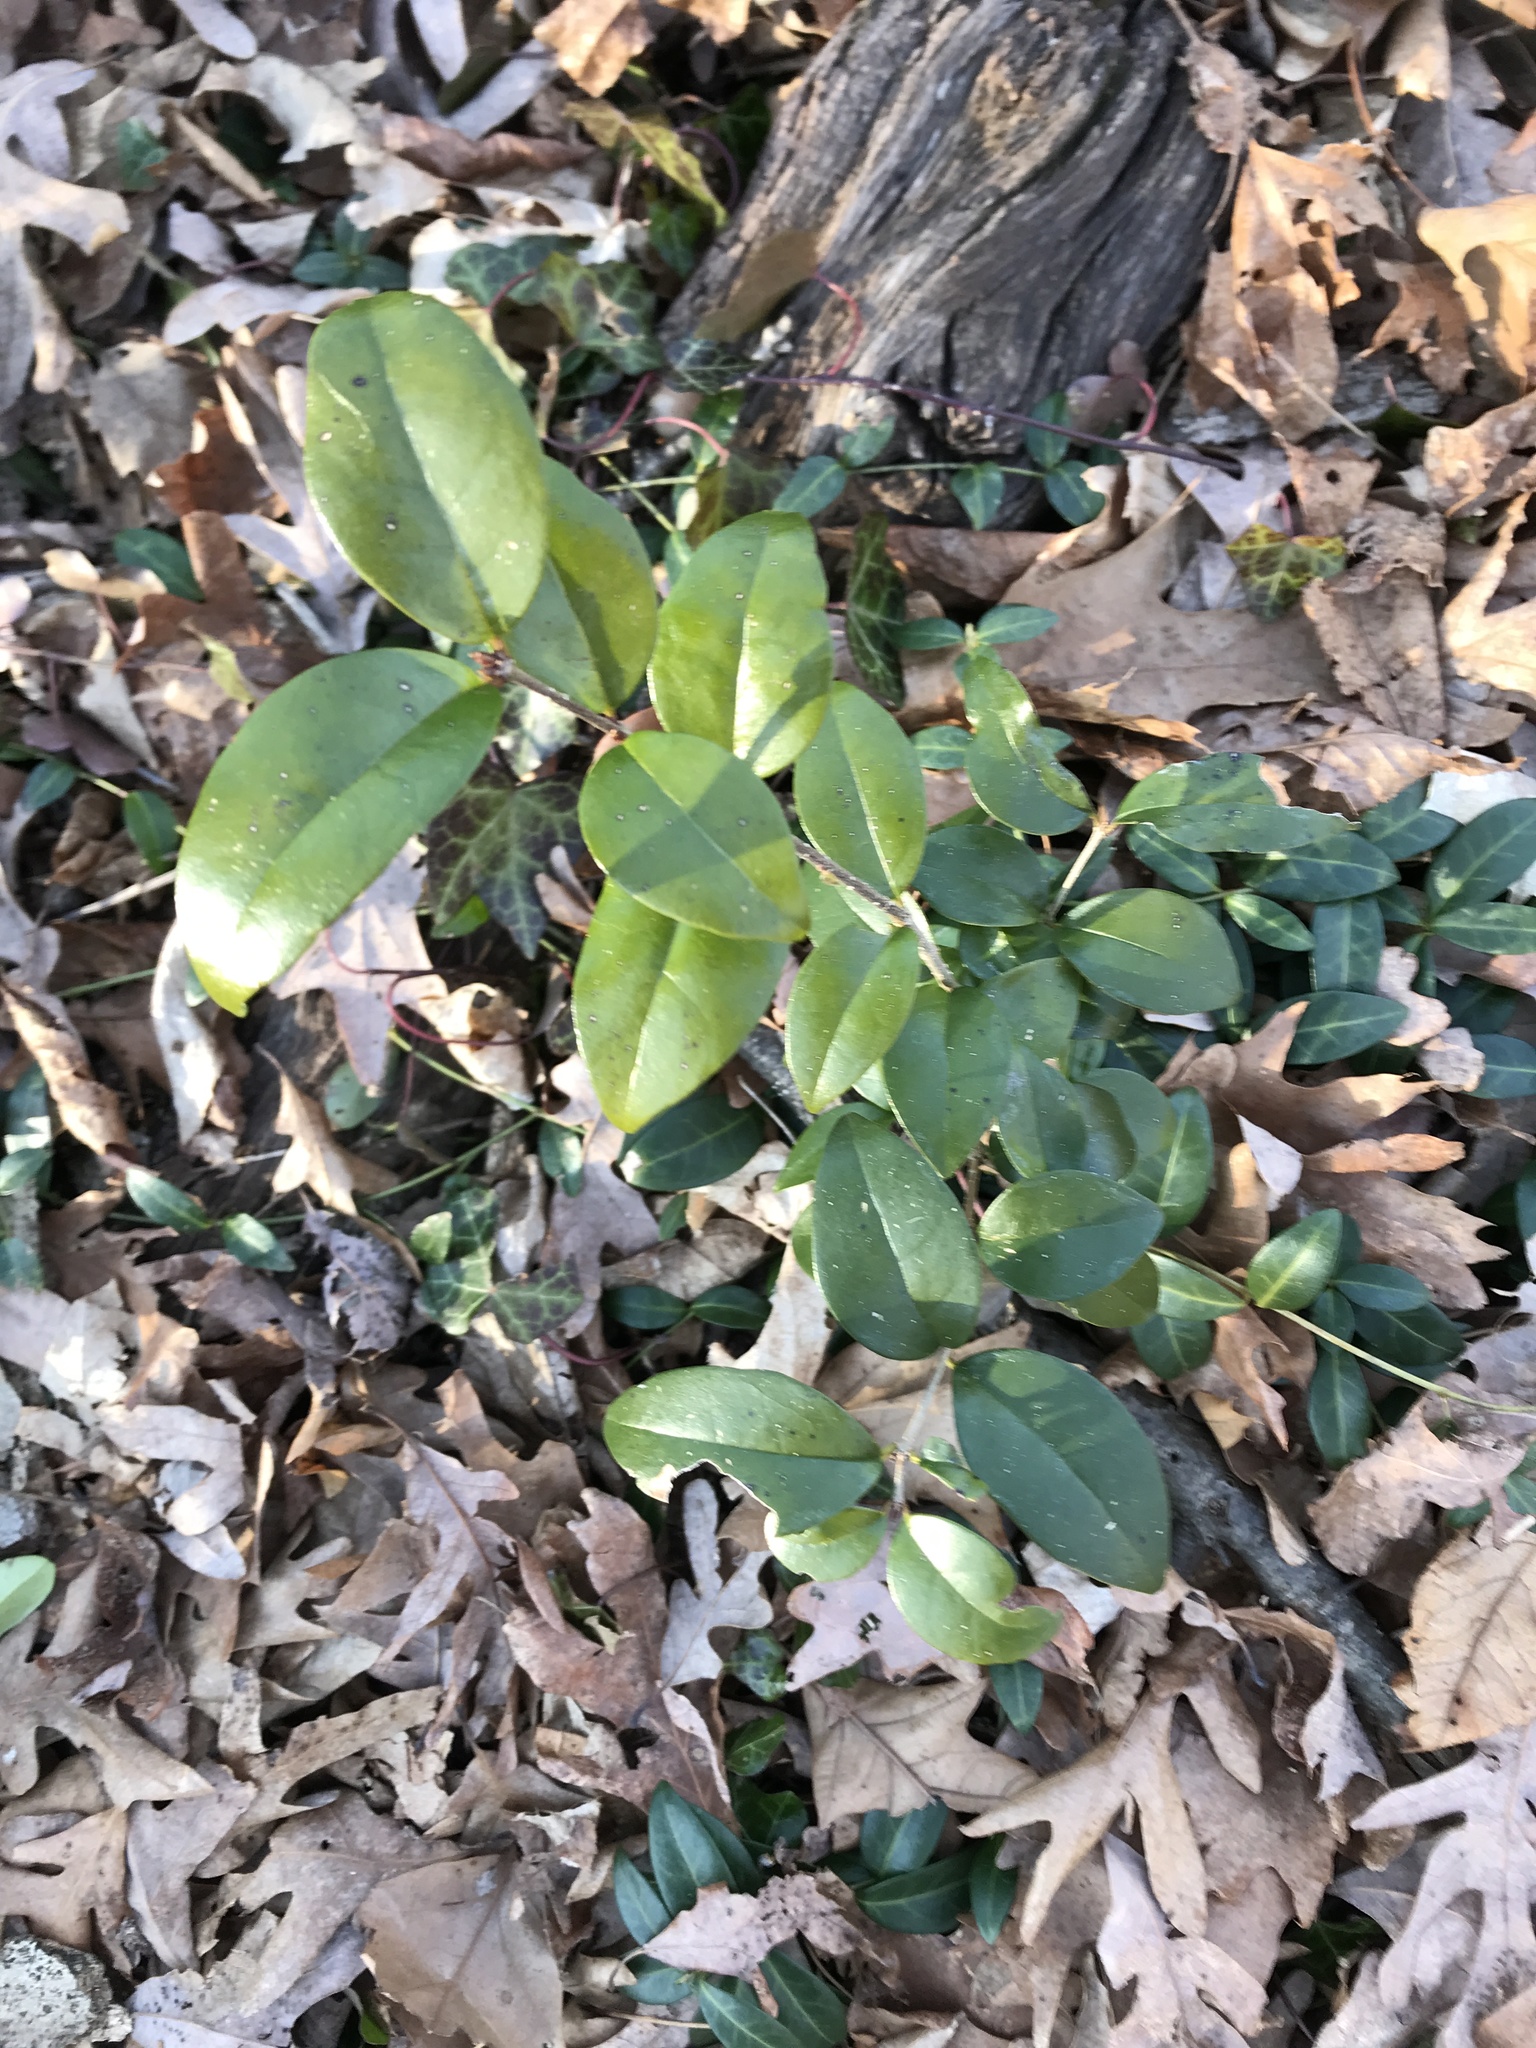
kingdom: Plantae
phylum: Tracheophyta
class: Magnoliopsida
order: Lamiales
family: Oleaceae
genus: Ligustrum
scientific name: Ligustrum japonicum
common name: Japanese privet
